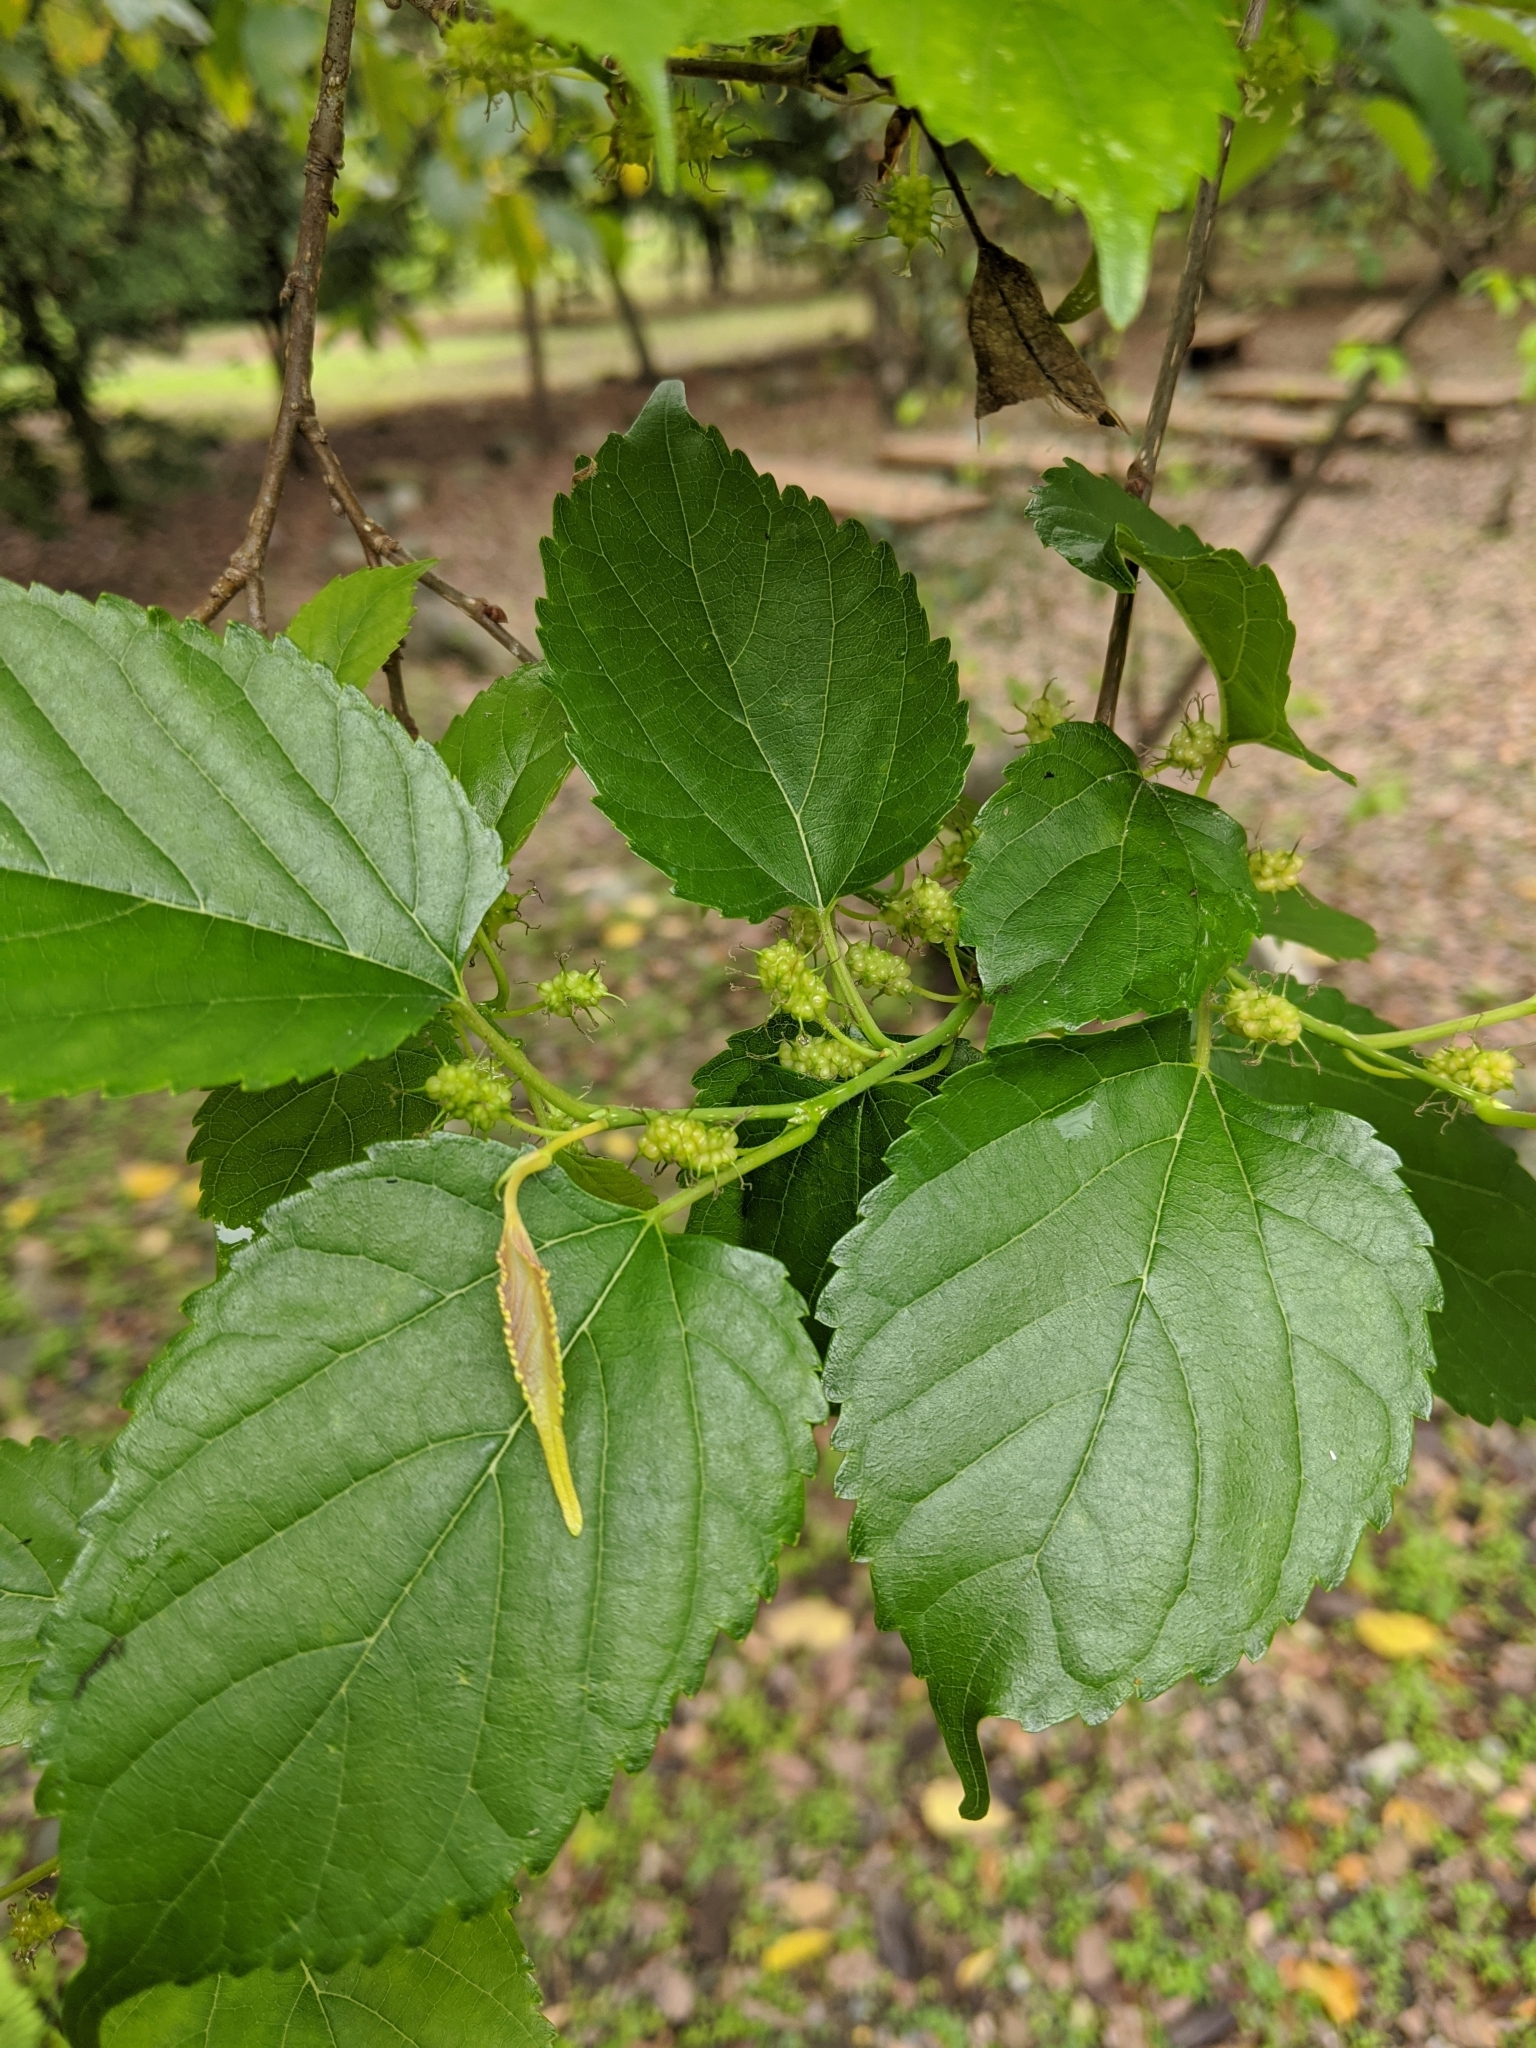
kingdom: Plantae
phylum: Tracheophyta
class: Magnoliopsida
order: Rosales
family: Moraceae
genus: Morus
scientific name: Morus indica
